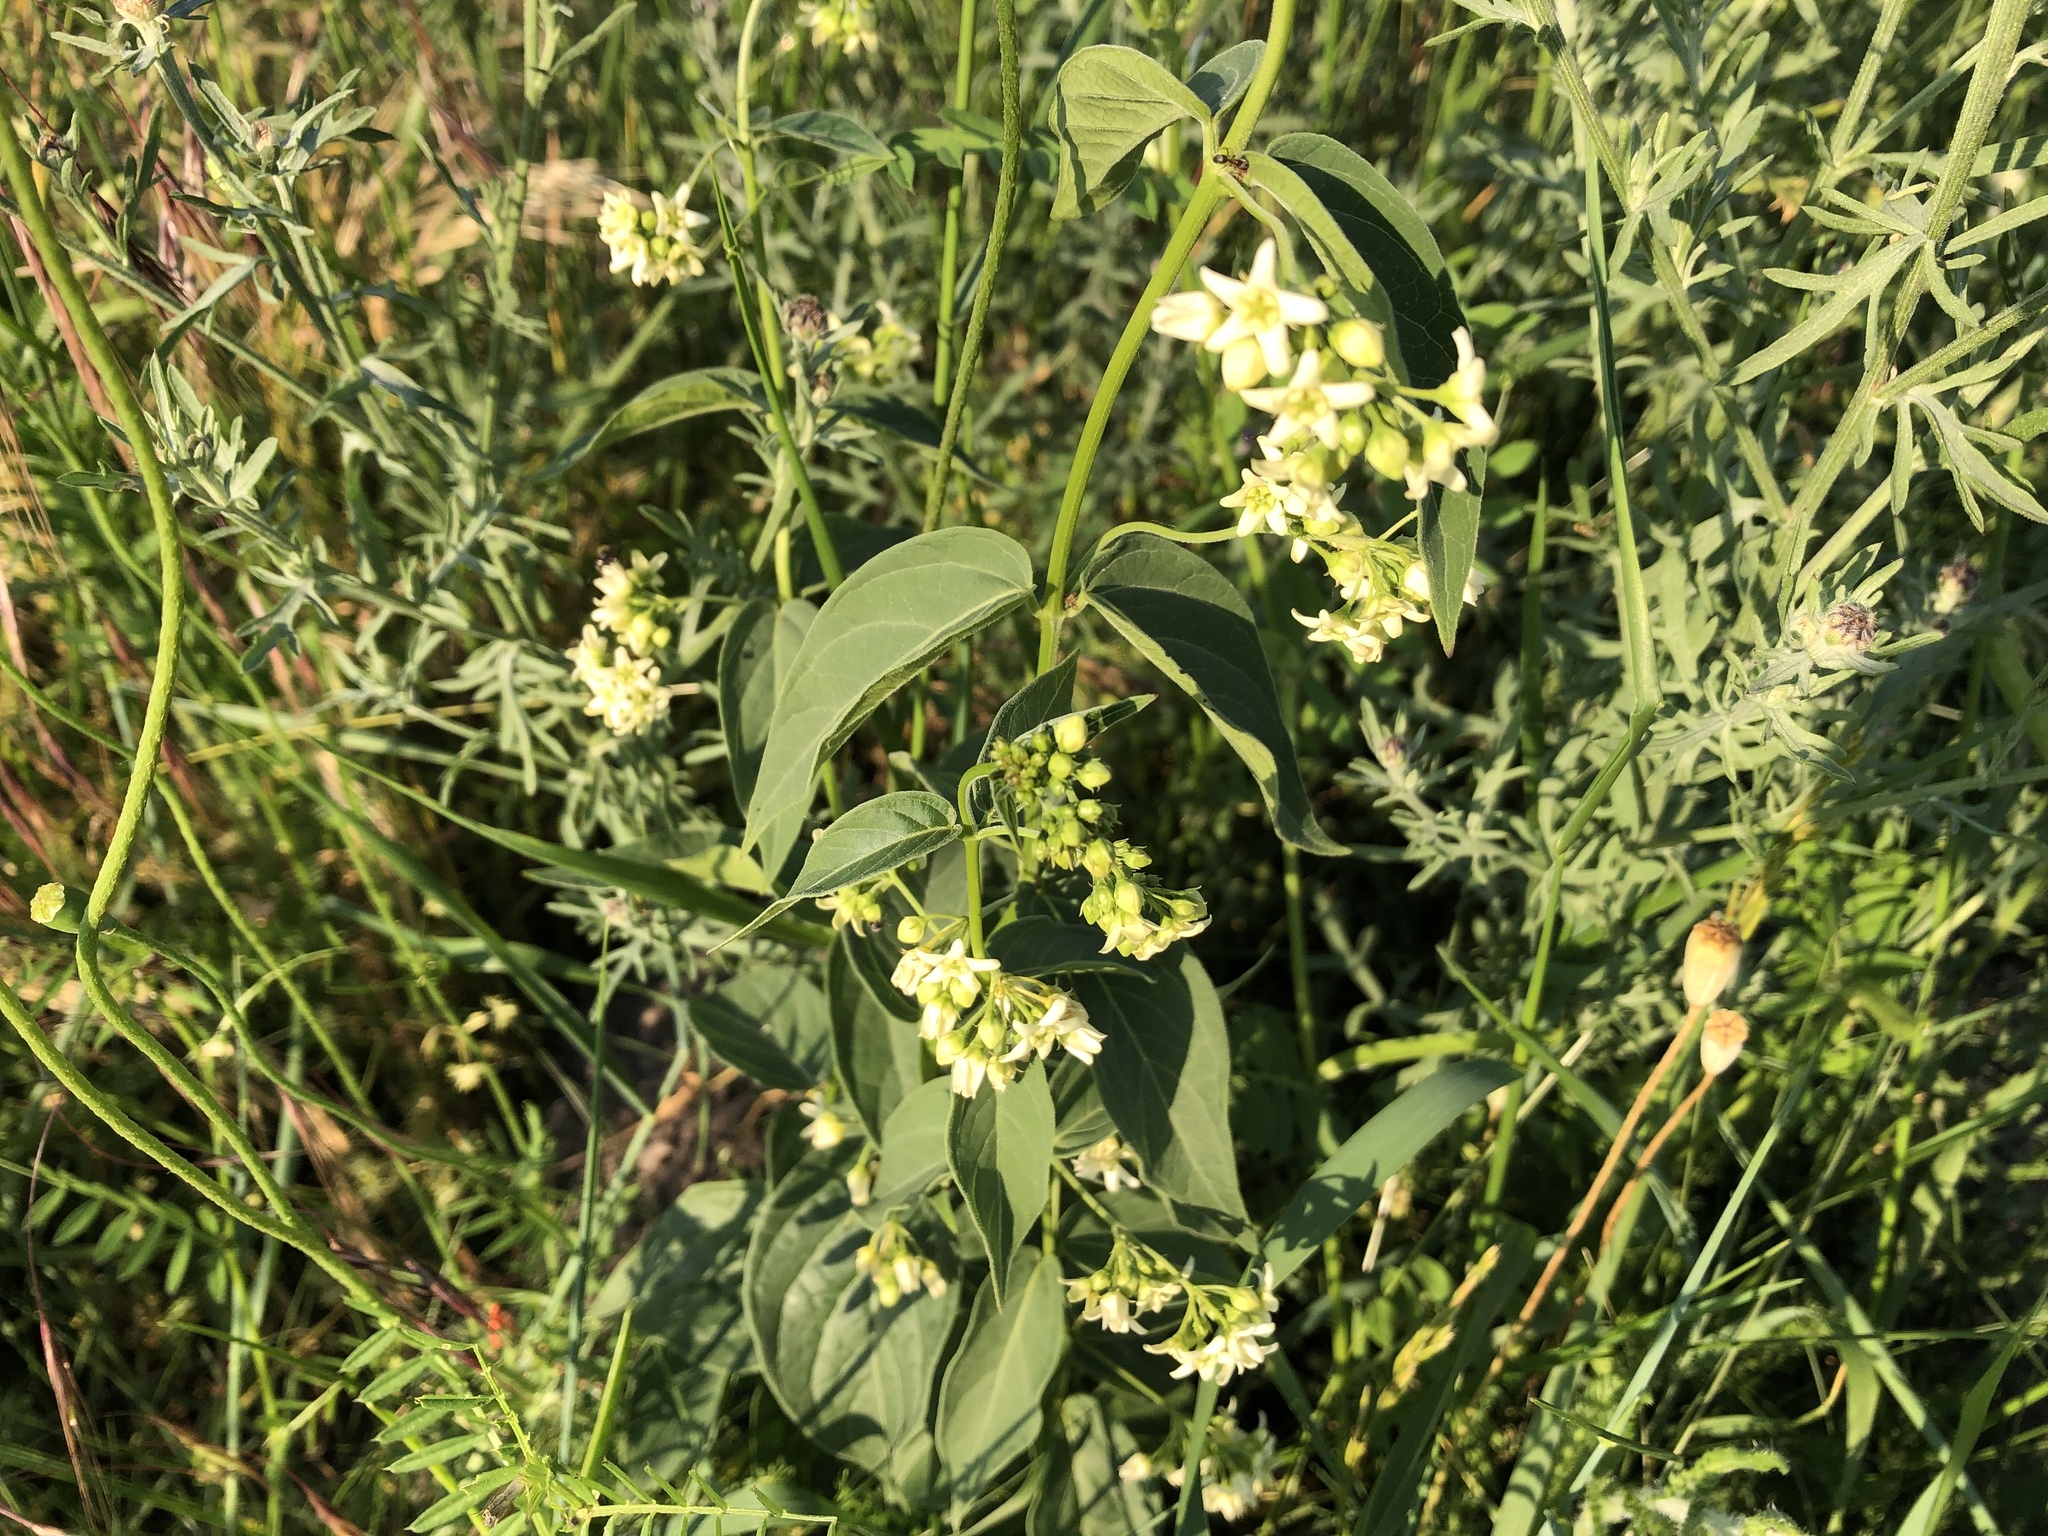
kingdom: Plantae
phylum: Tracheophyta
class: Magnoliopsida
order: Gentianales
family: Apocynaceae
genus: Vincetoxicum
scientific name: Vincetoxicum hirundinaria
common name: White swallowwort
